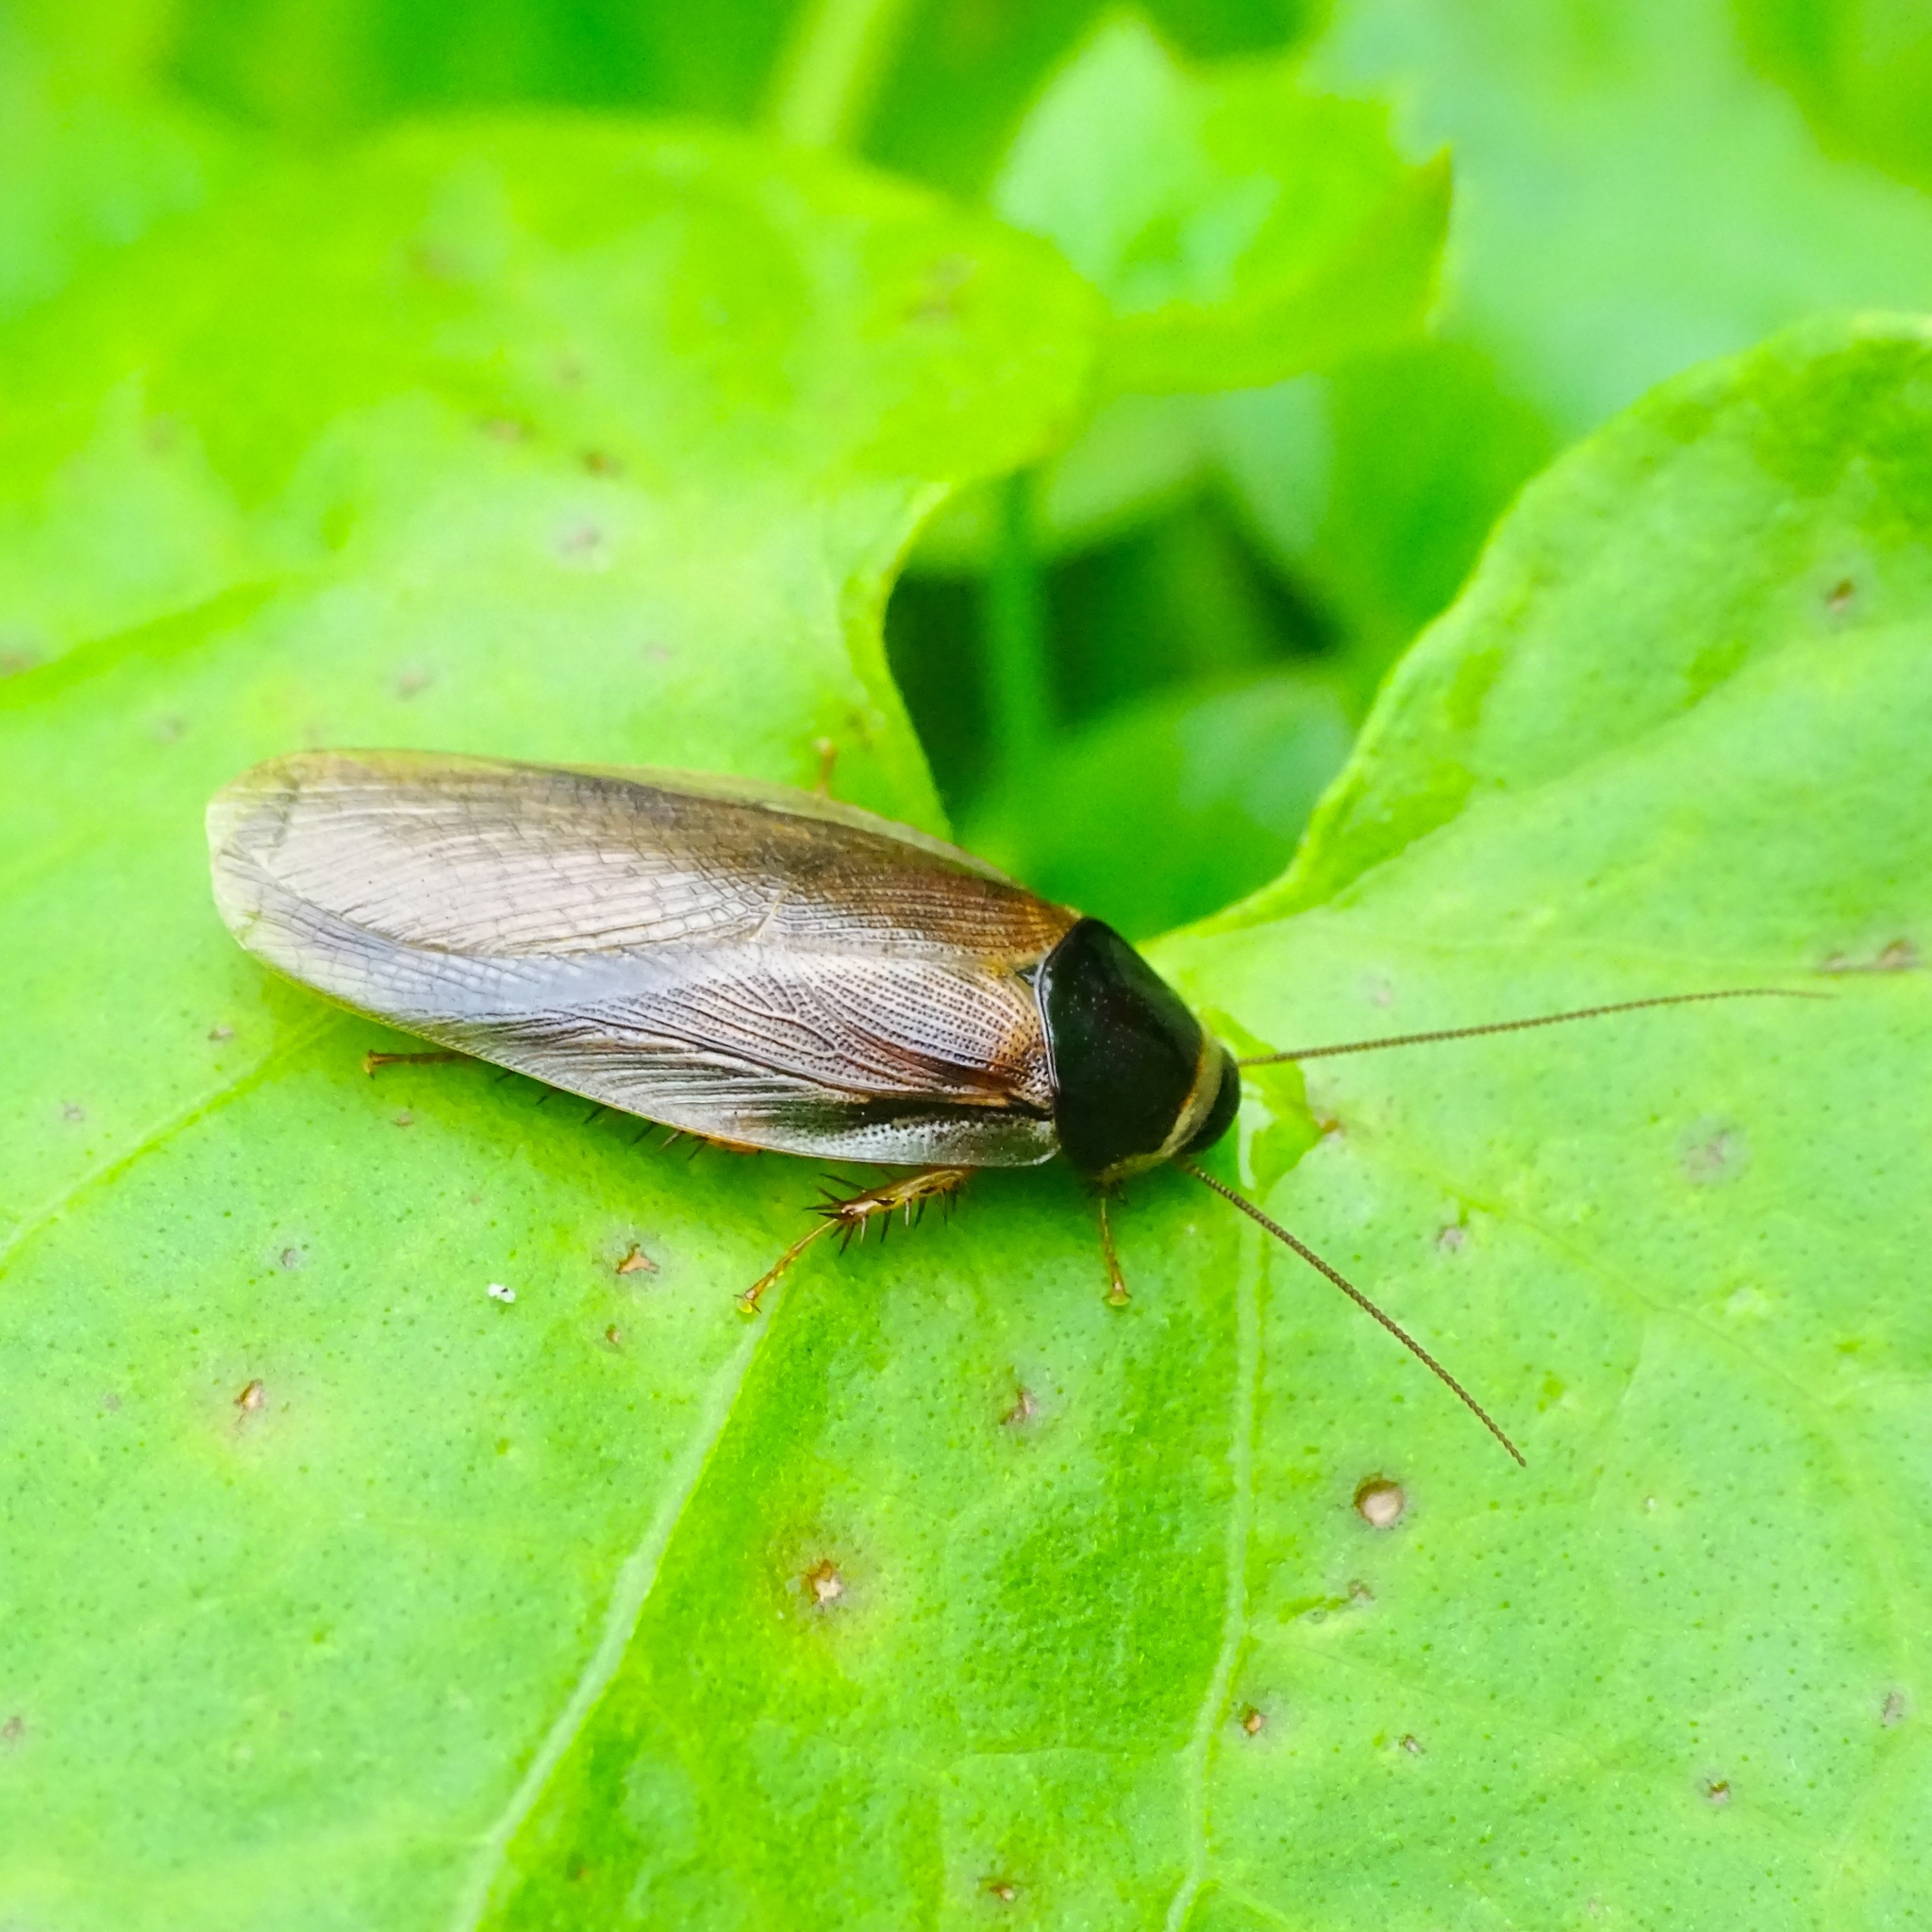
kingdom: Animalia
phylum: Arthropoda
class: Insecta
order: Blattodea
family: Blaberidae
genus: Pycnoscelus
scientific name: Pycnoscelus indicus
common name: Burrowing cockroach
